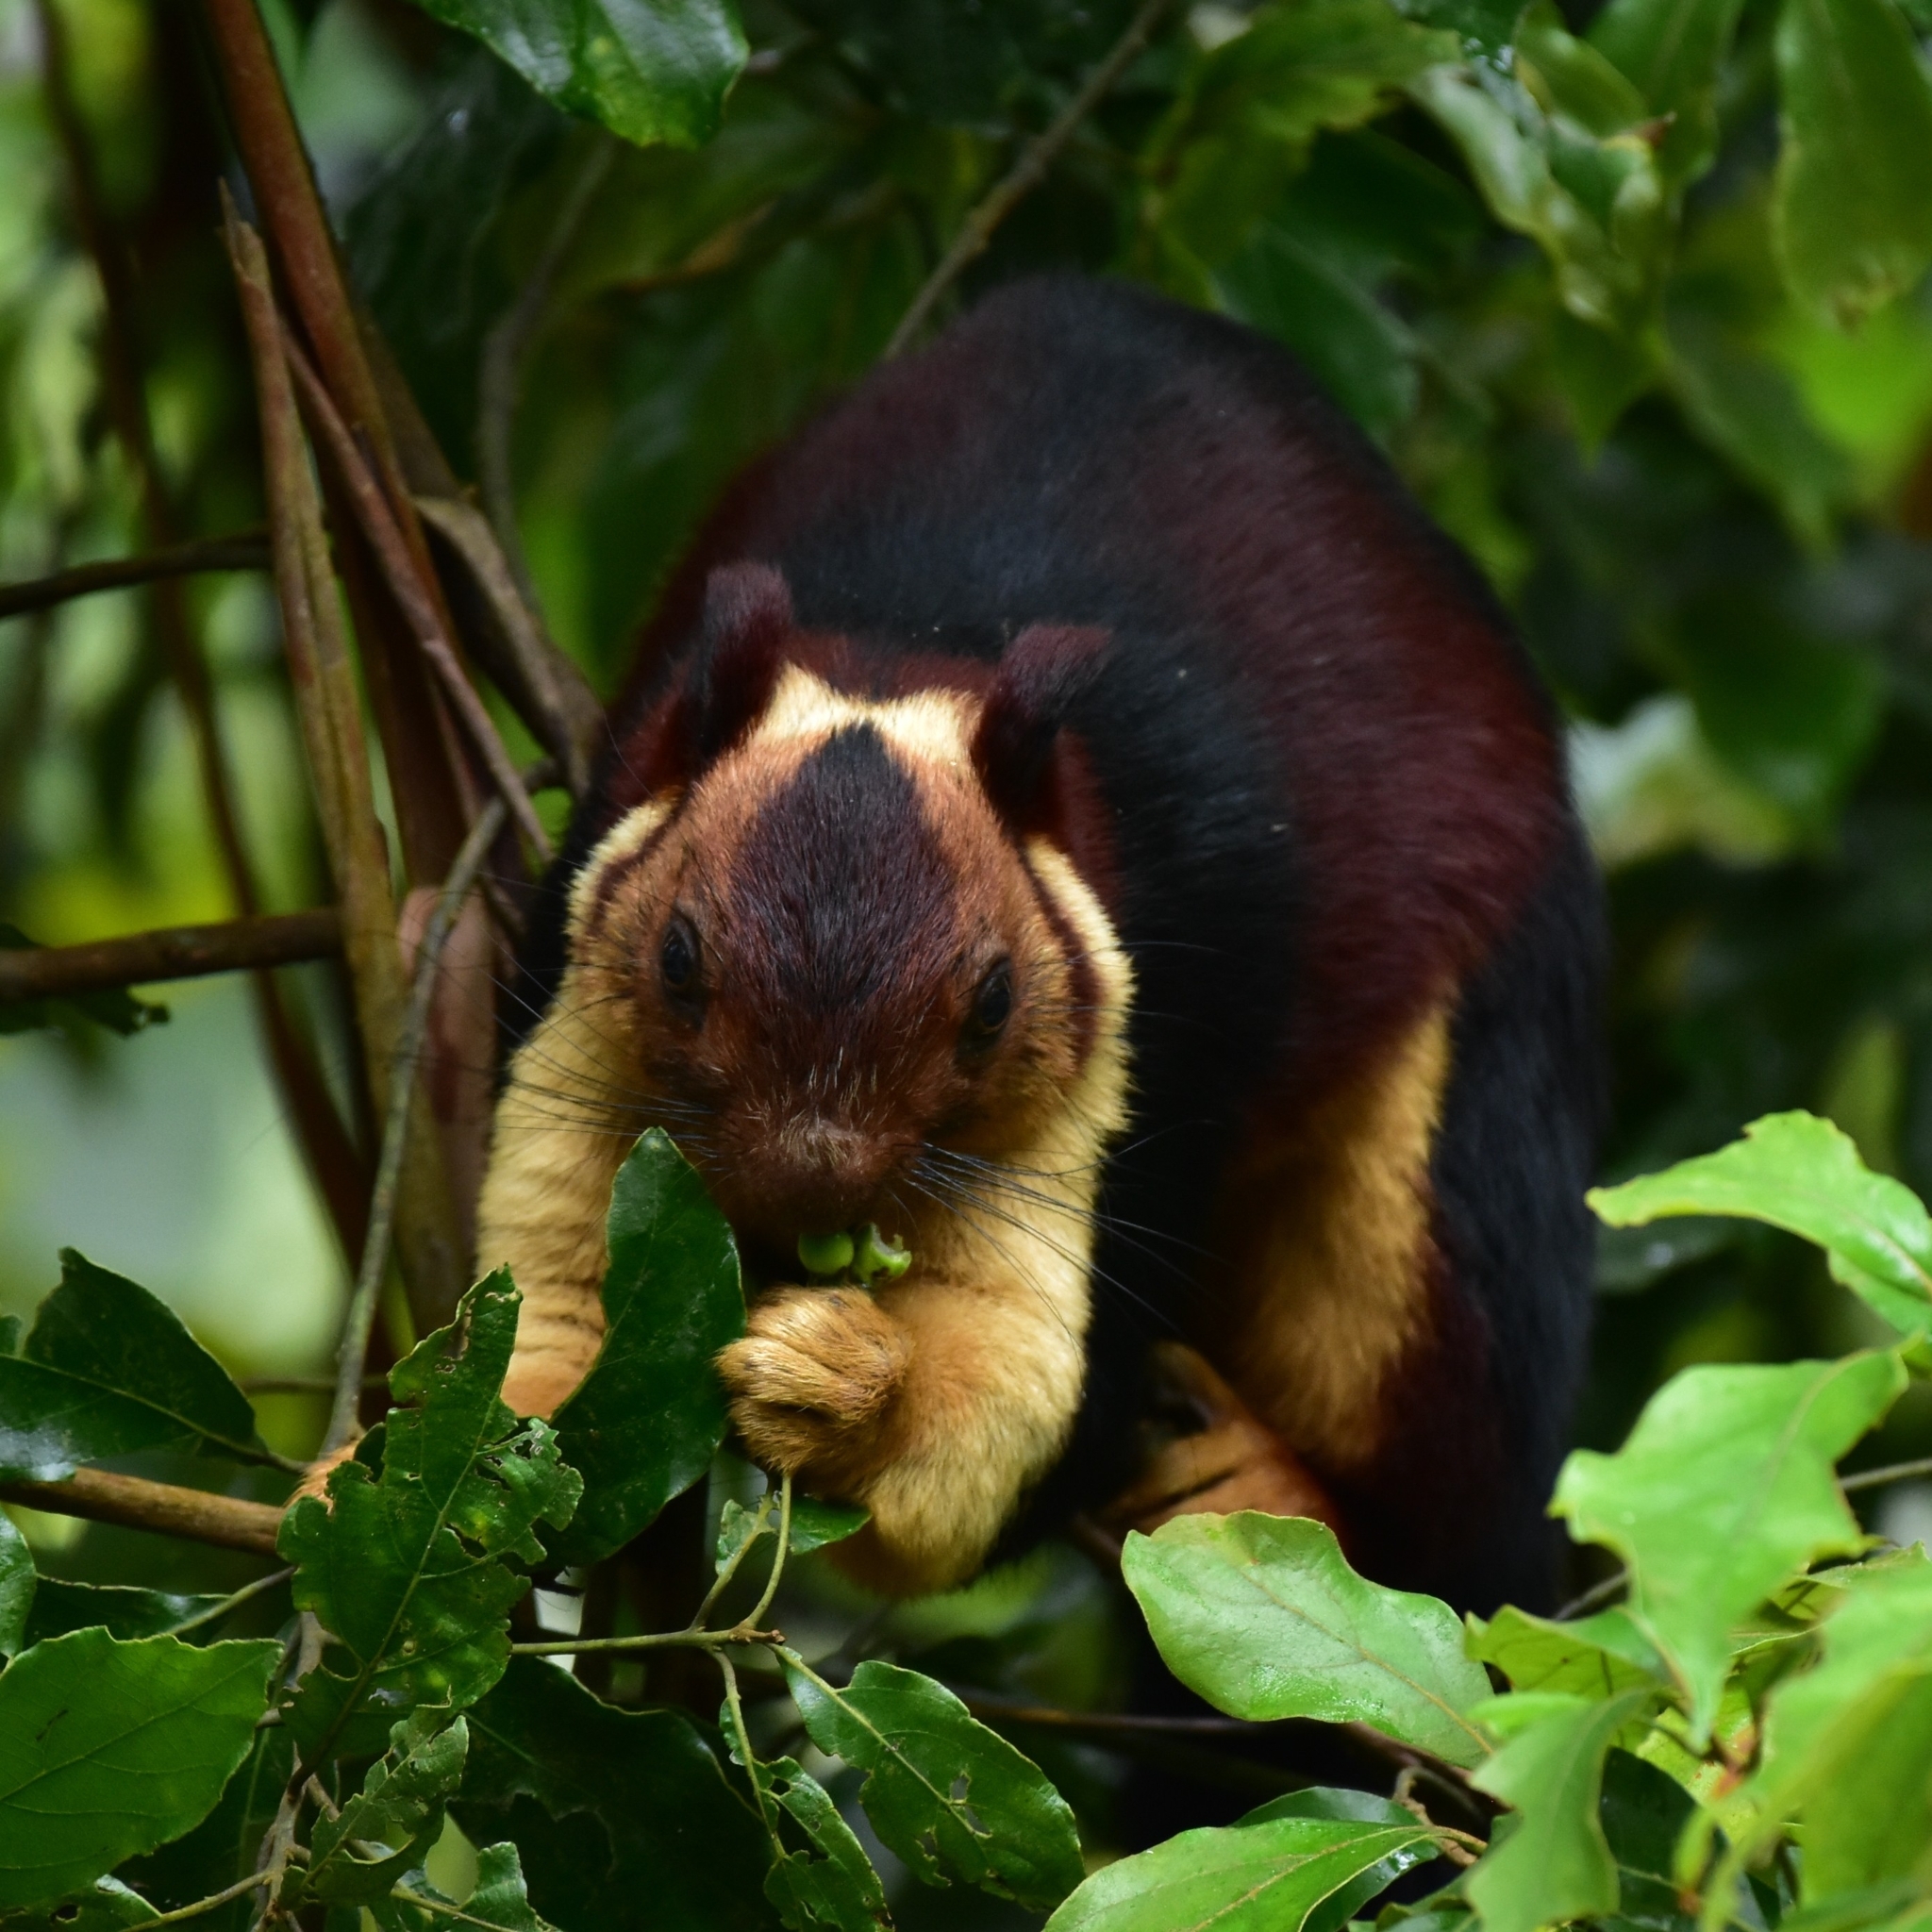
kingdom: Animalia
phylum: Chordata
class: Mammalia
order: Rodentia
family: Sciuridae
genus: Ratufa
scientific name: Ratufa indica
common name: Indian giant squirrel
